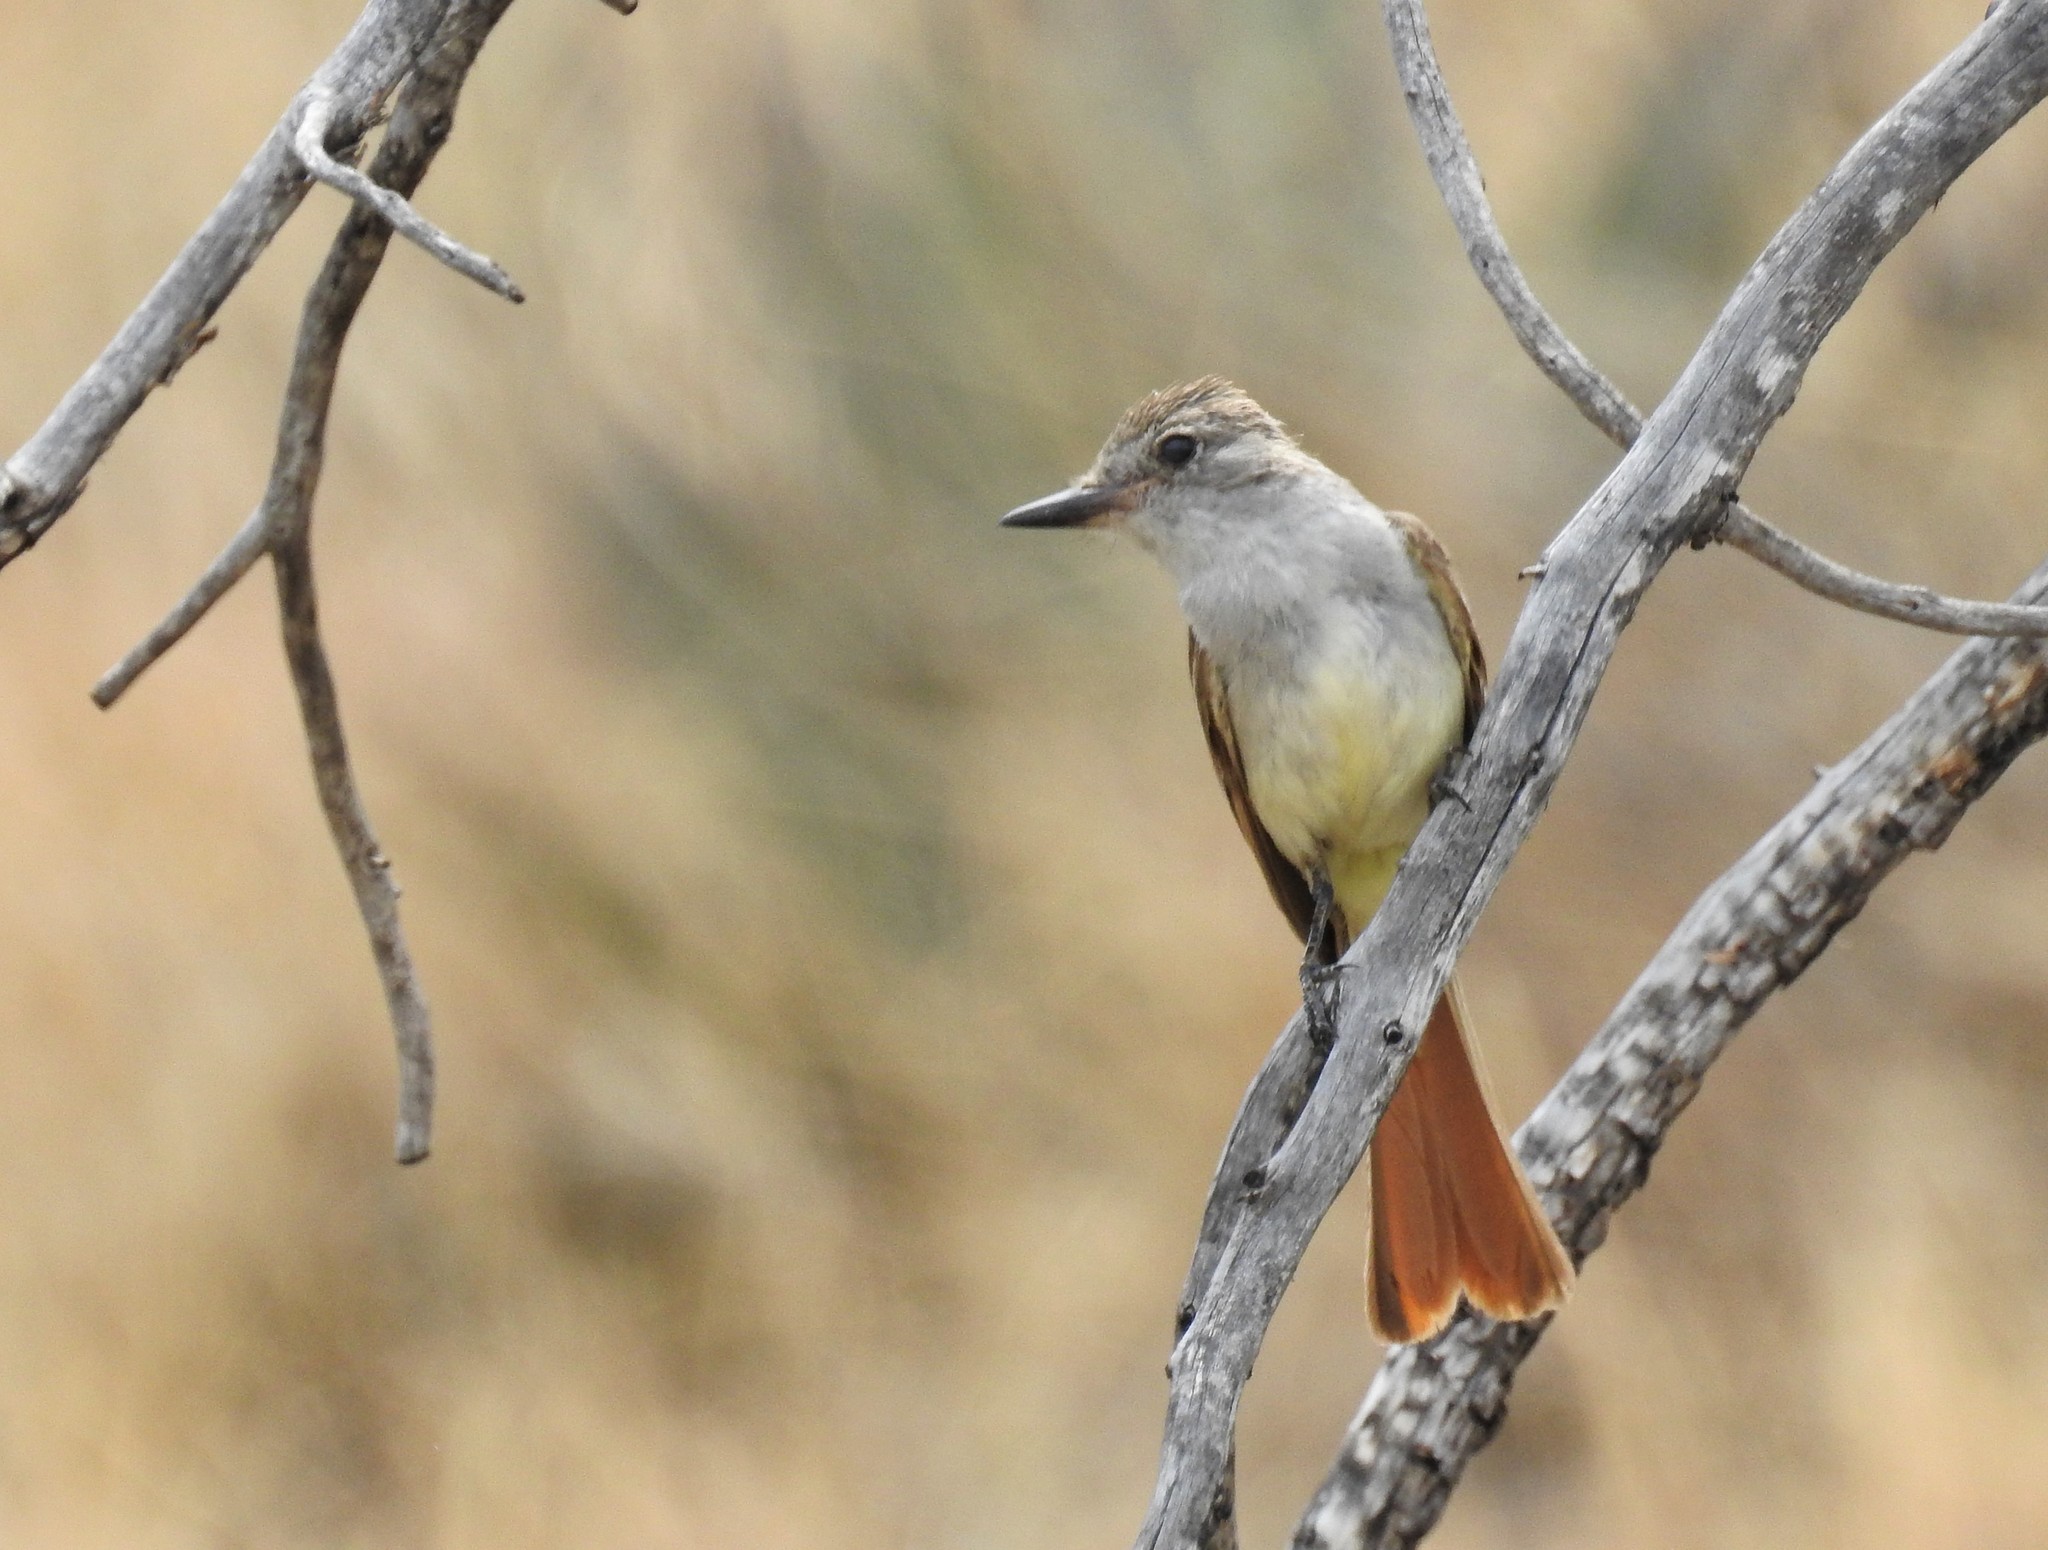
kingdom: Animalia
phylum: Chordata
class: Aves
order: Passeriformes
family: Tyrannidae
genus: Myiarchus
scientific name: Myiarchus tyrannulus
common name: Brown-crested flycatcher
